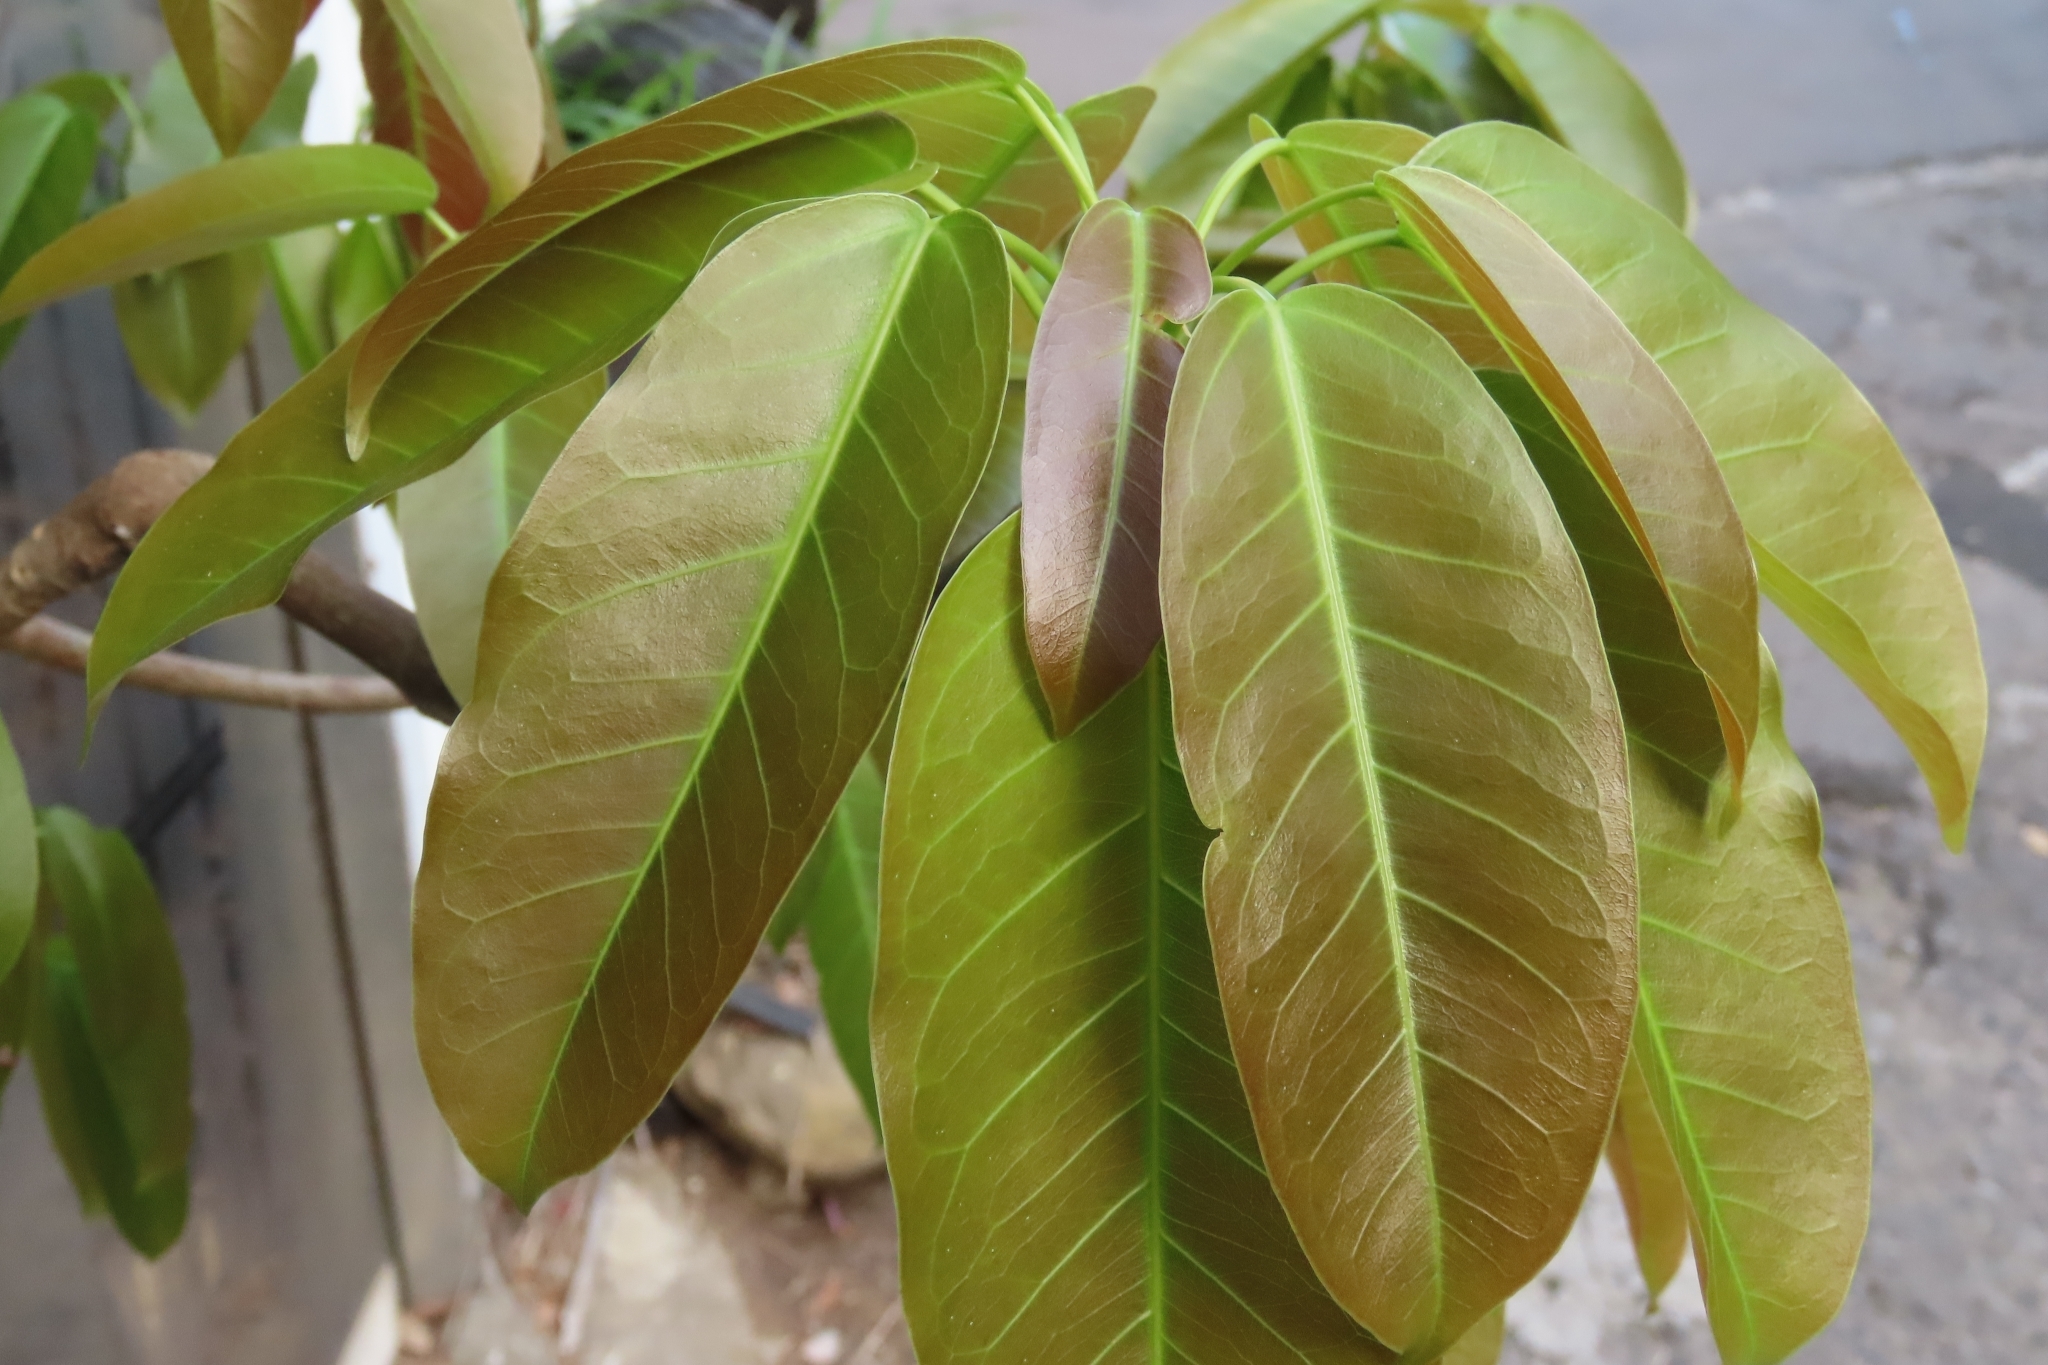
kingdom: Plantae
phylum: Tracheophyta
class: Magnoliopsida
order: Rosales
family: Moraceae
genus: Ficus
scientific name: Ficus subpisocarpa
